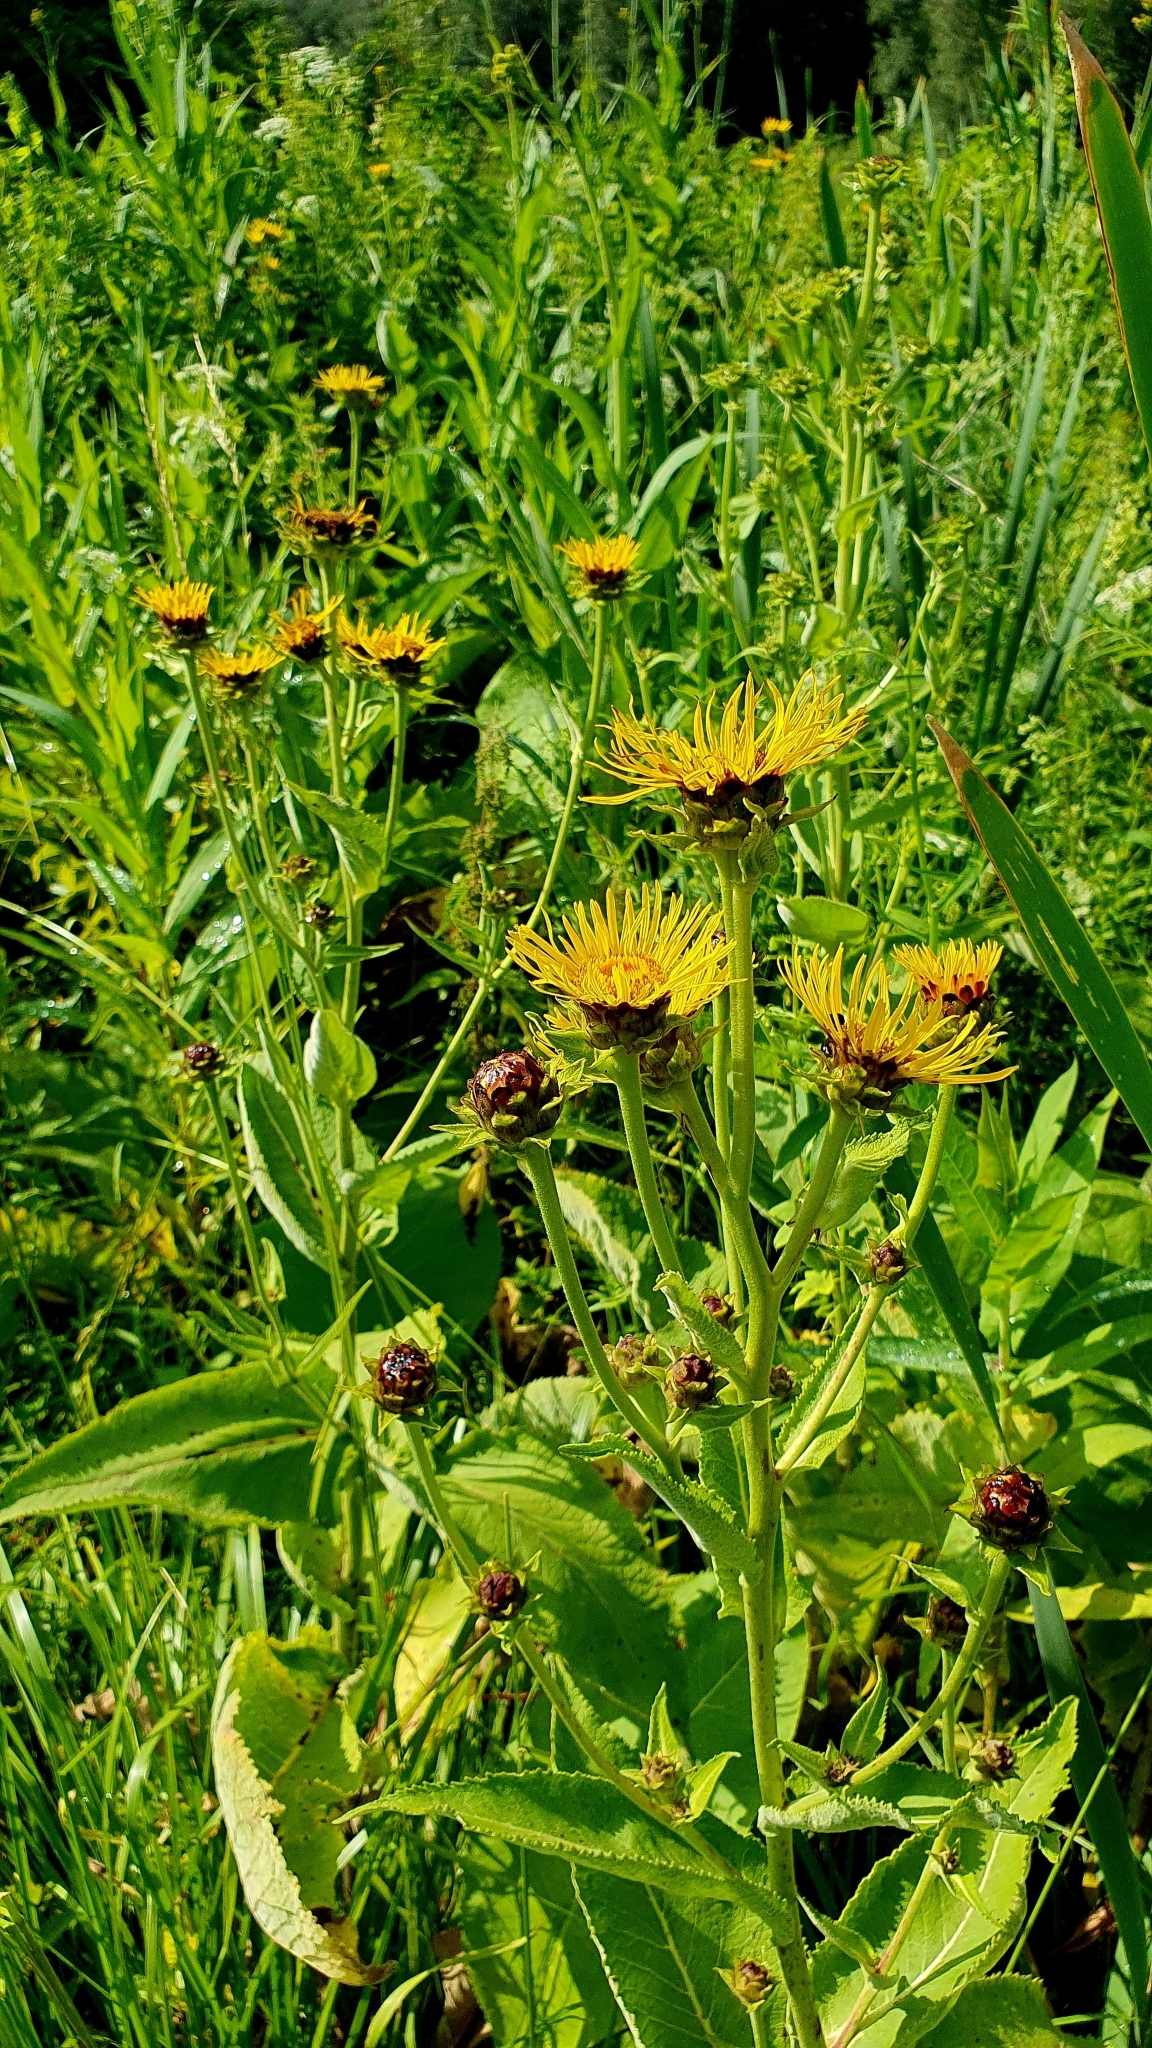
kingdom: Plantae
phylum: Tracheophyta
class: Magnoliopsida
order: Asterales
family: Asteraceae
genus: Inula
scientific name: Inula helenium
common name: Elecampane
